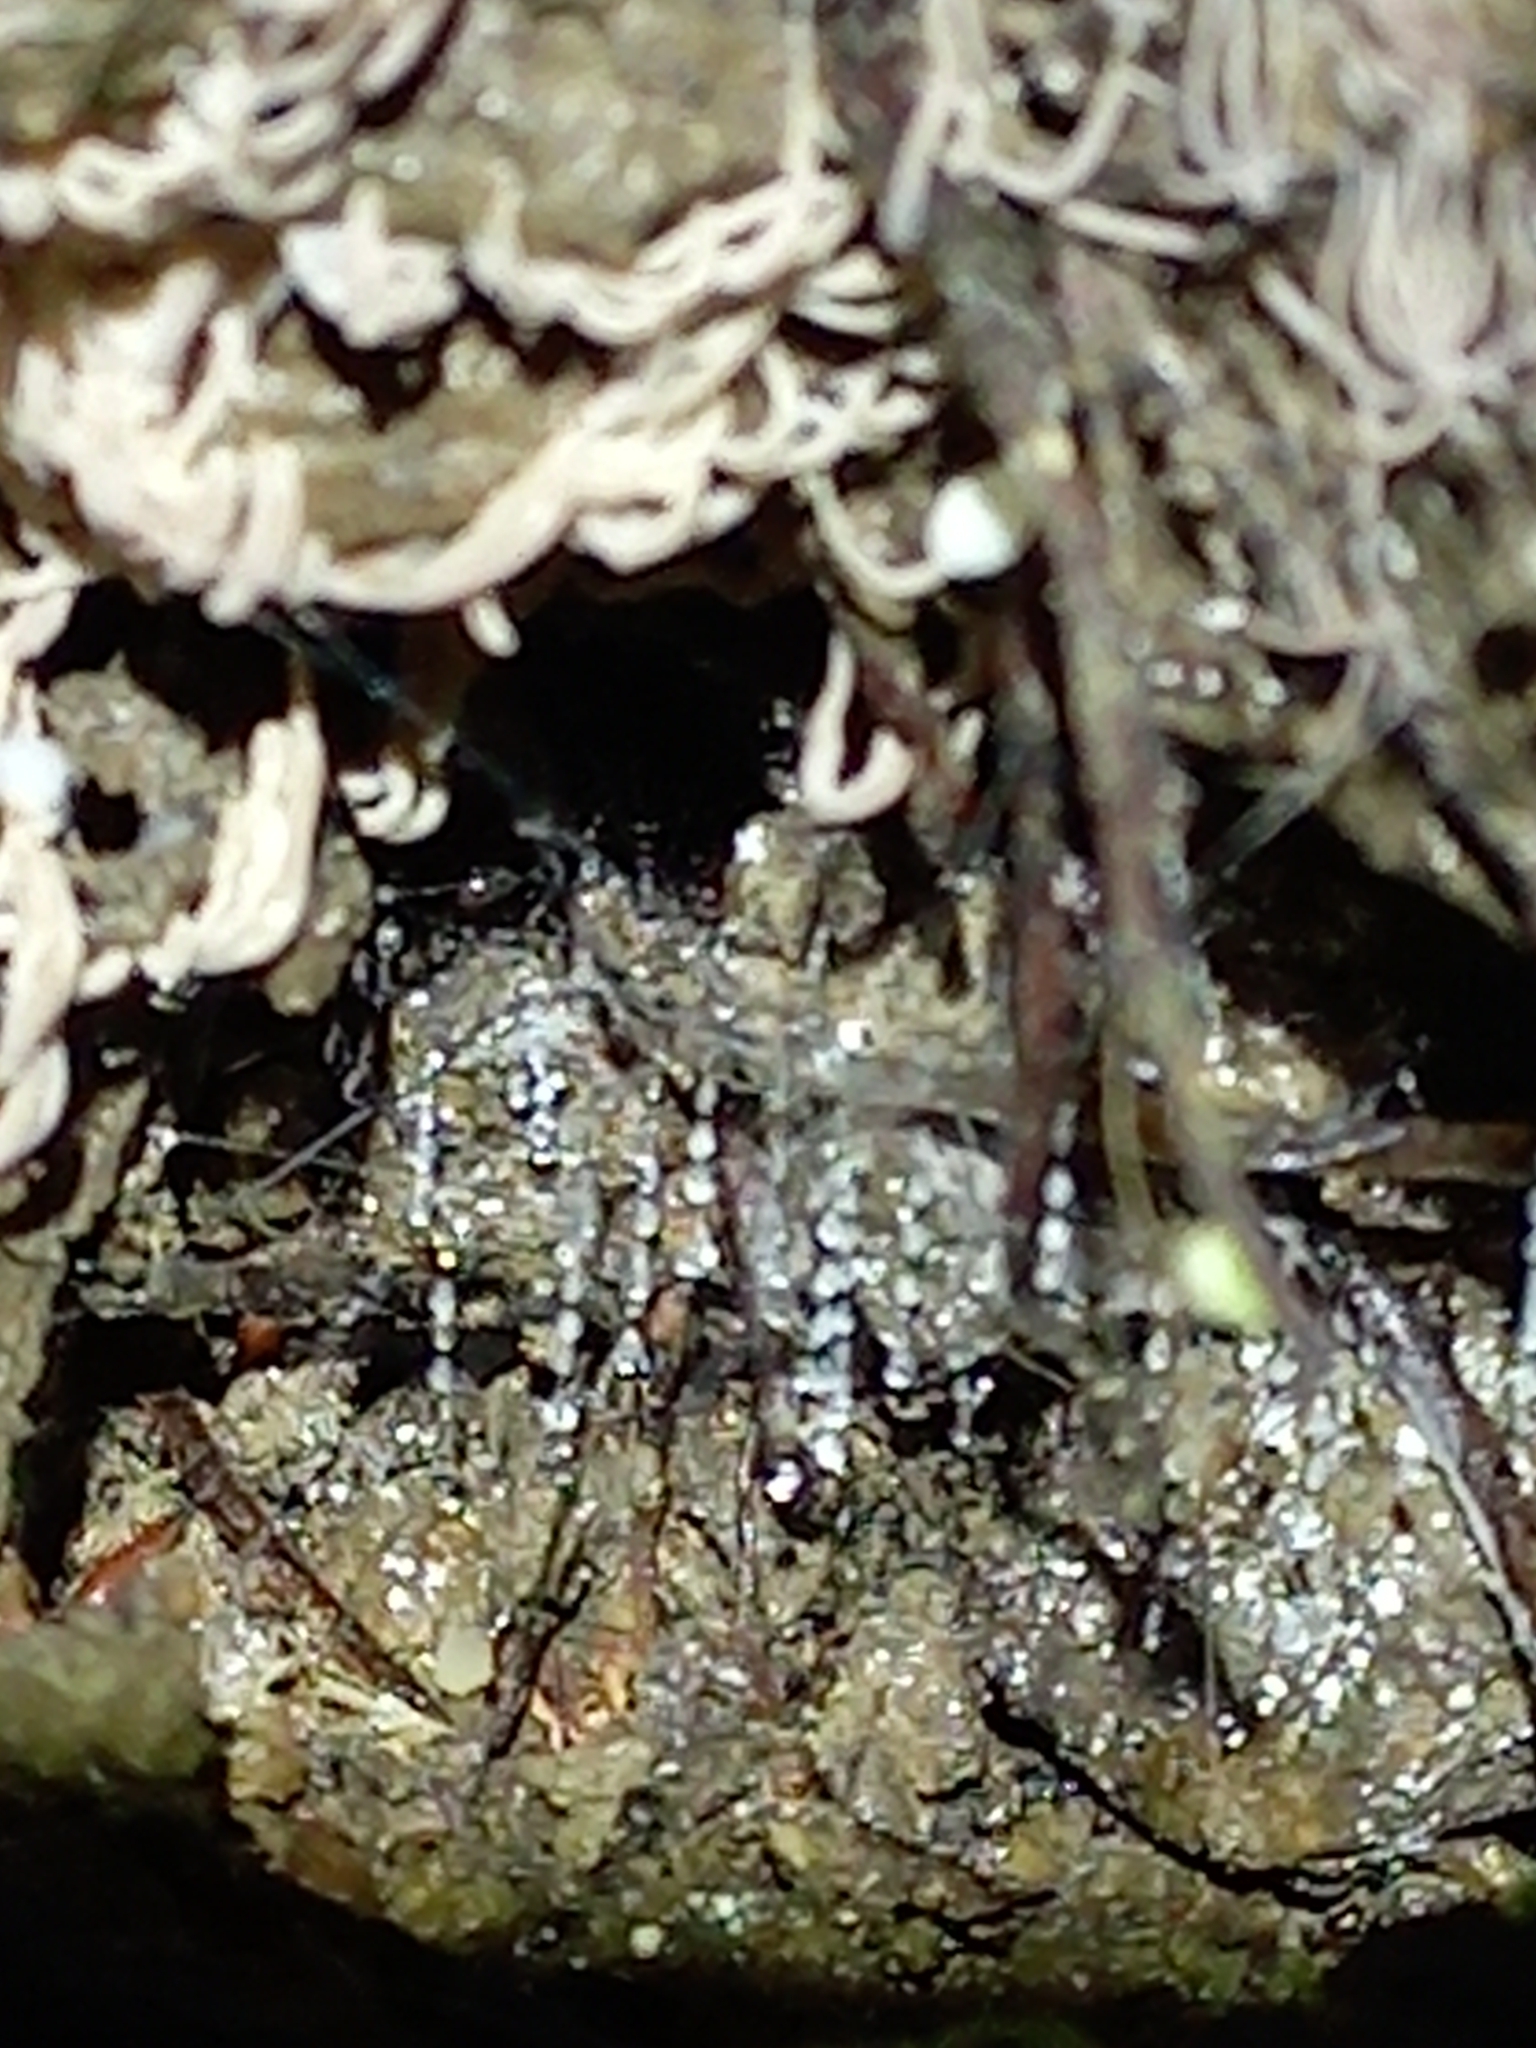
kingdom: Animalia
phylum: Arthropoda
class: Insecta
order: Diptera
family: Keroplatidae
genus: Arachnocampa
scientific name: Arachnocampa luminosa
